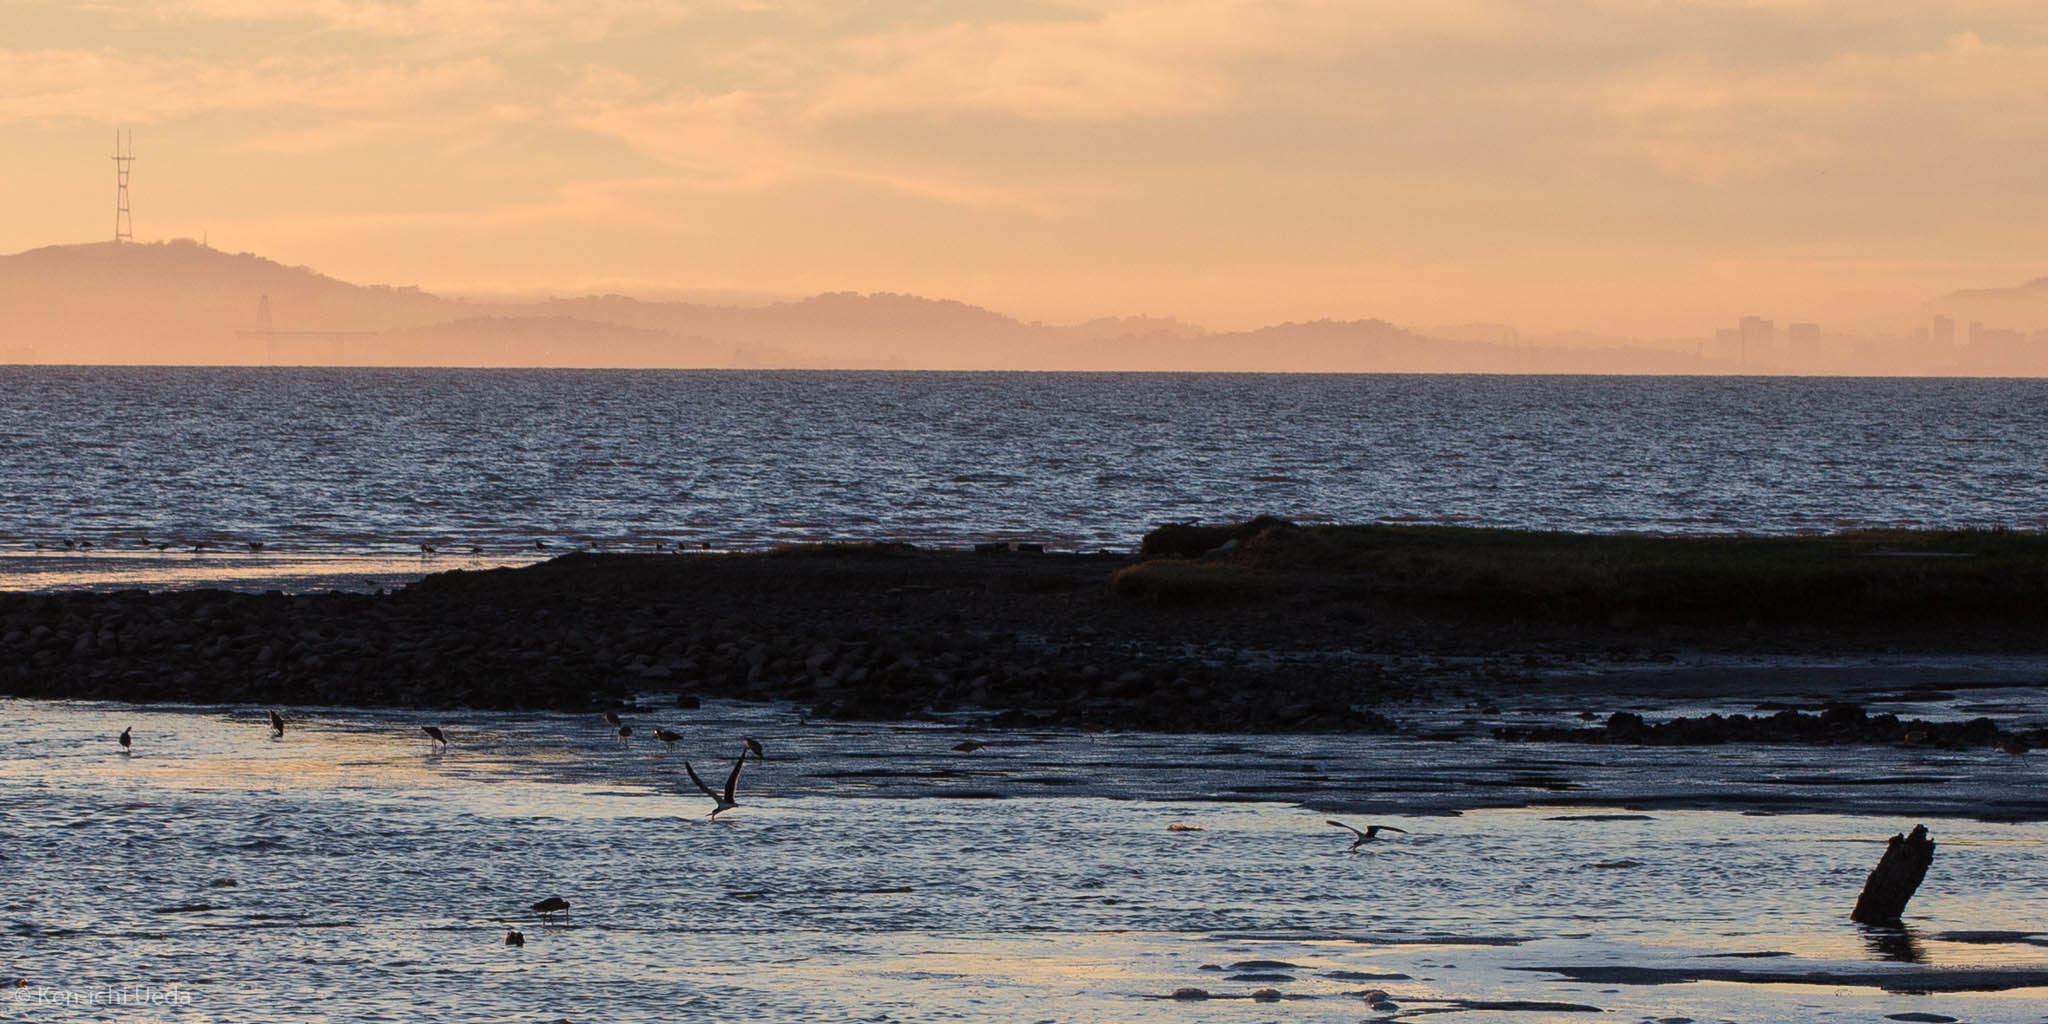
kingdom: Animalia
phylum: Chordata
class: Aves
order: Charadriiformes
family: Laridae
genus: Rynchops
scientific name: Rynchops niger
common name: Black skimmer
